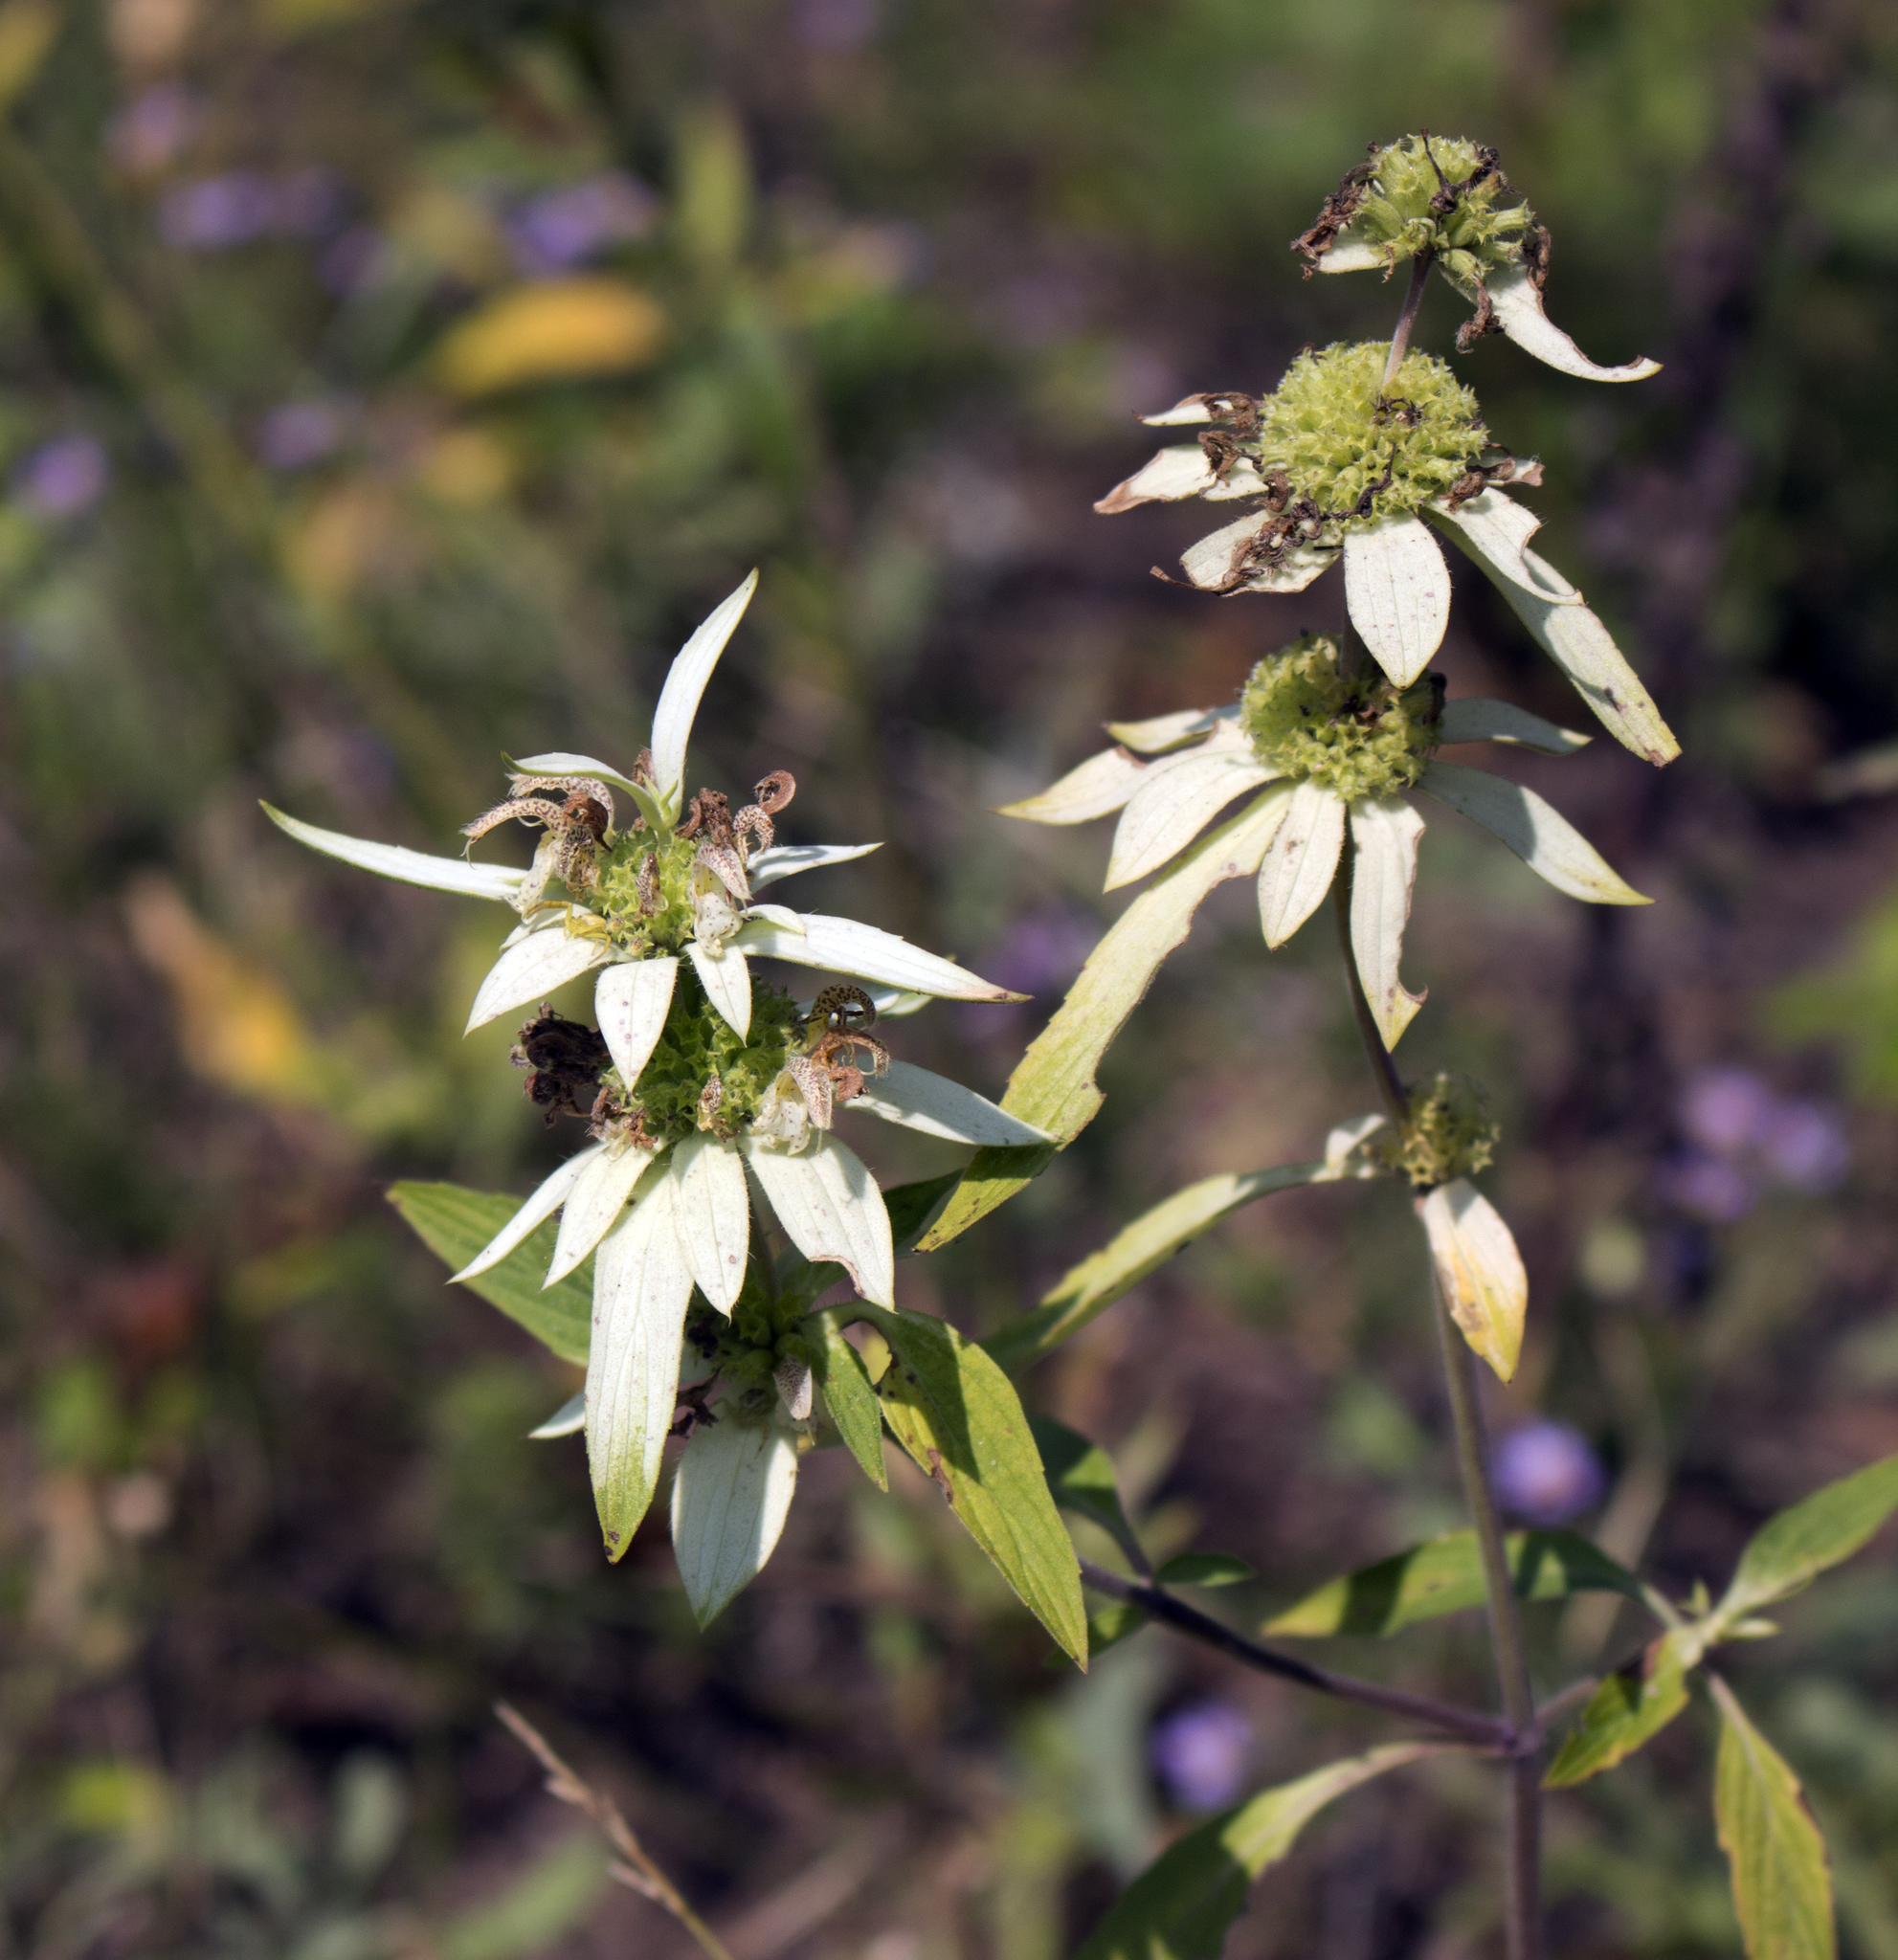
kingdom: Plantae
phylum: Tracheophyta
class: Magnoliopsida
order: Lamiales
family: Lamiaceae
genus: Monarda
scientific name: Monarda punctata
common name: Dotted monarda
